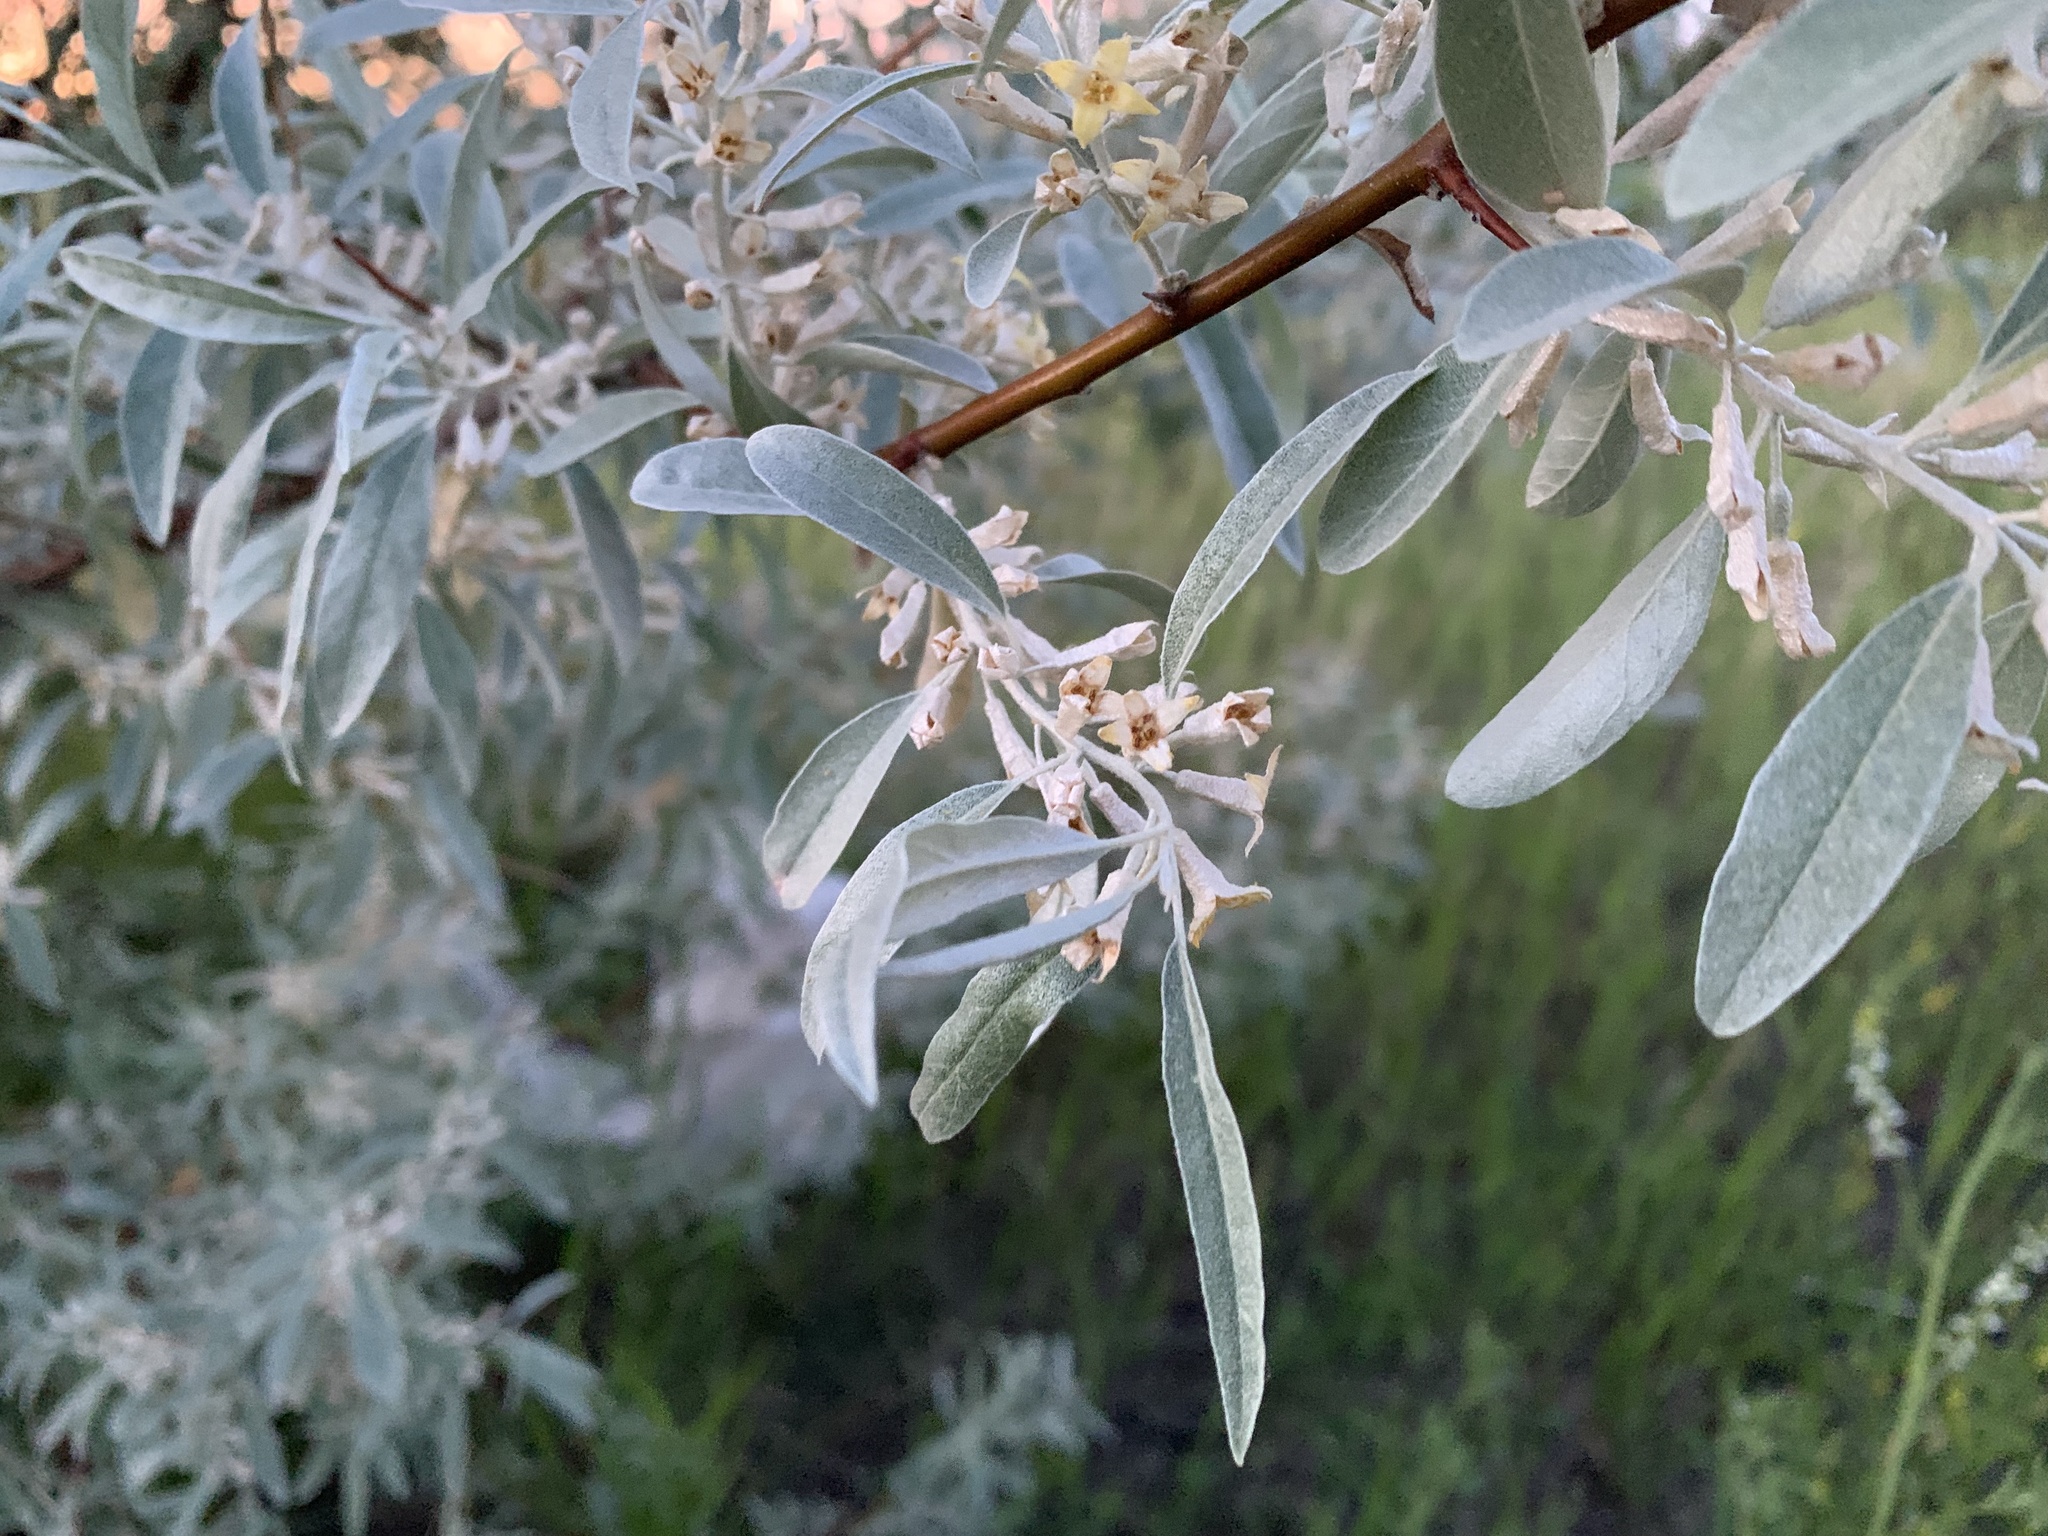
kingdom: Plantae
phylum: Tracheophyta
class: Magnoliopsida
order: Rosales
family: Elaeagnaceae
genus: Elaeagnus
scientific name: Elaeagnus angustifolia
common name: Russian olive
